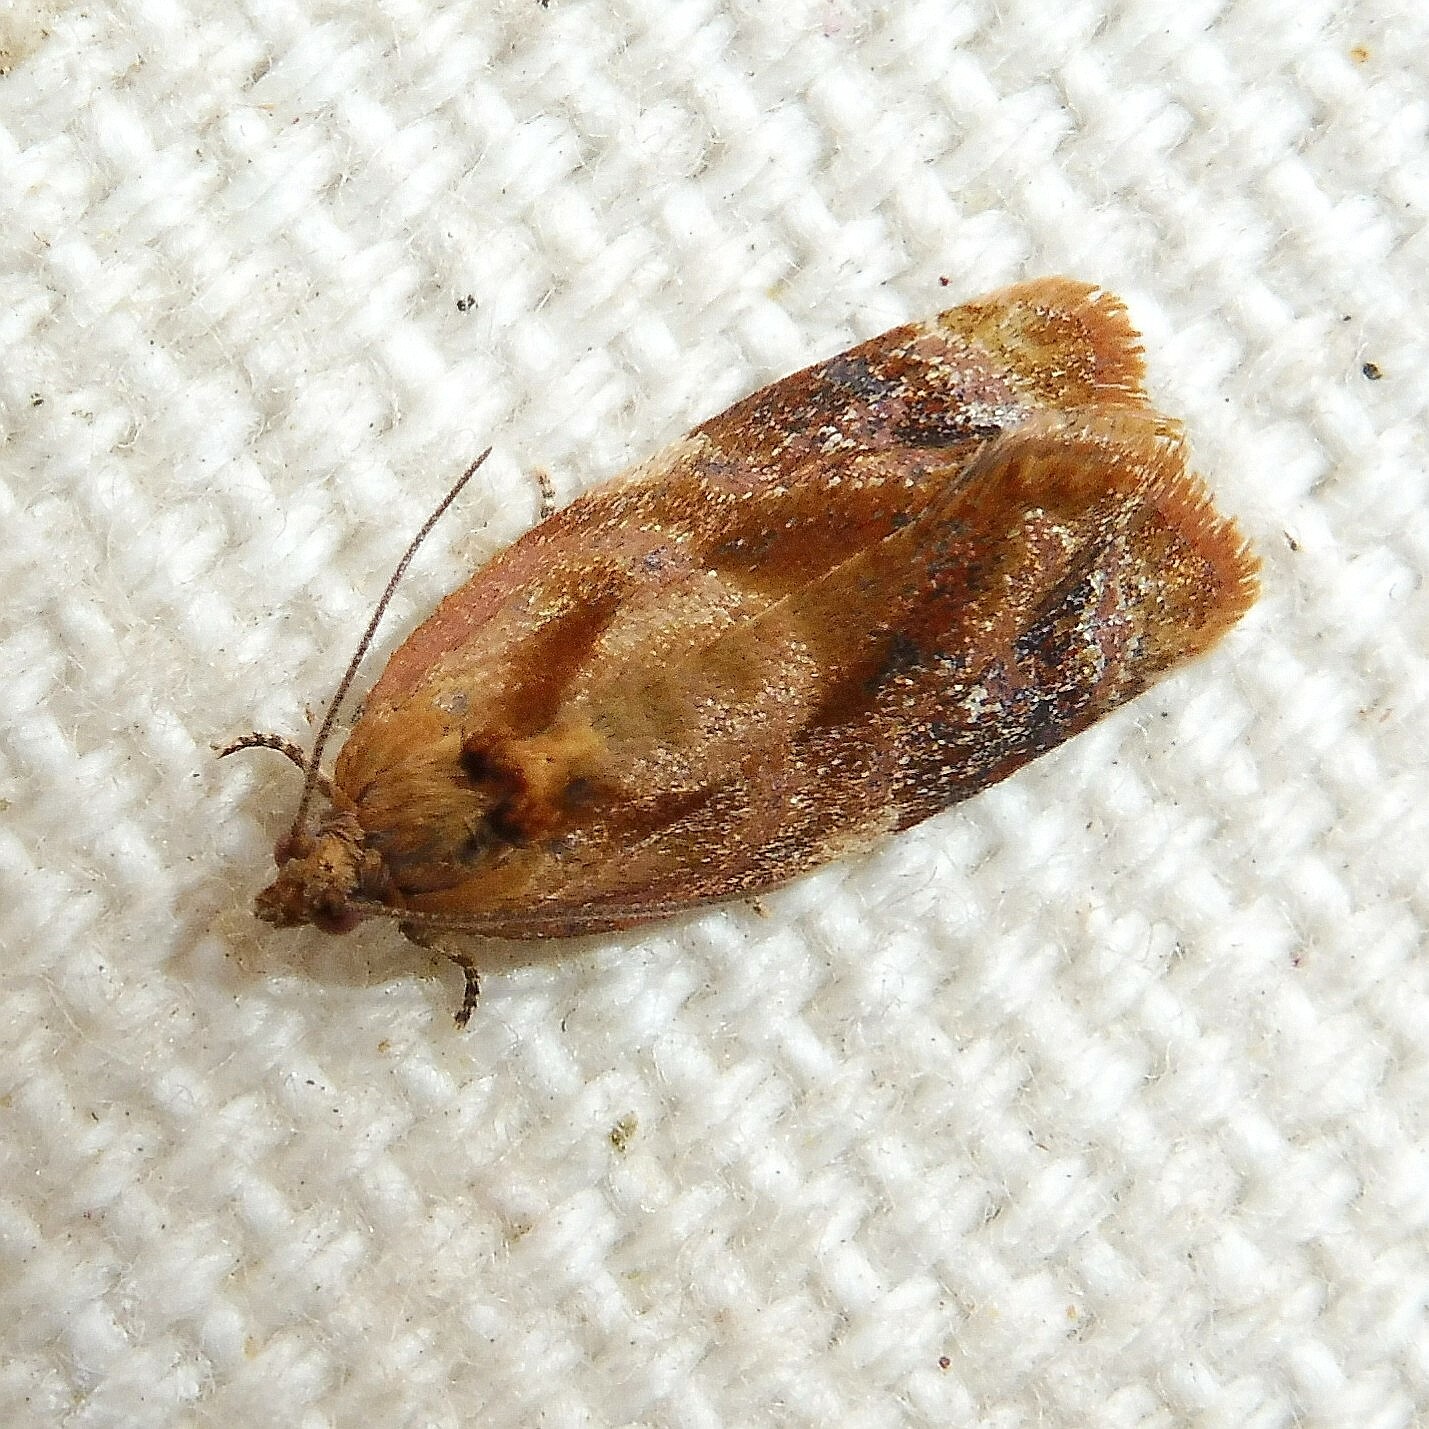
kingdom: Animalia
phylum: Arthropoda
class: Insecta
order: Lepidoptera
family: Tortricidae
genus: Ditula
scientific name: Ditula angustiorana
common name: Red-barred tortrix
